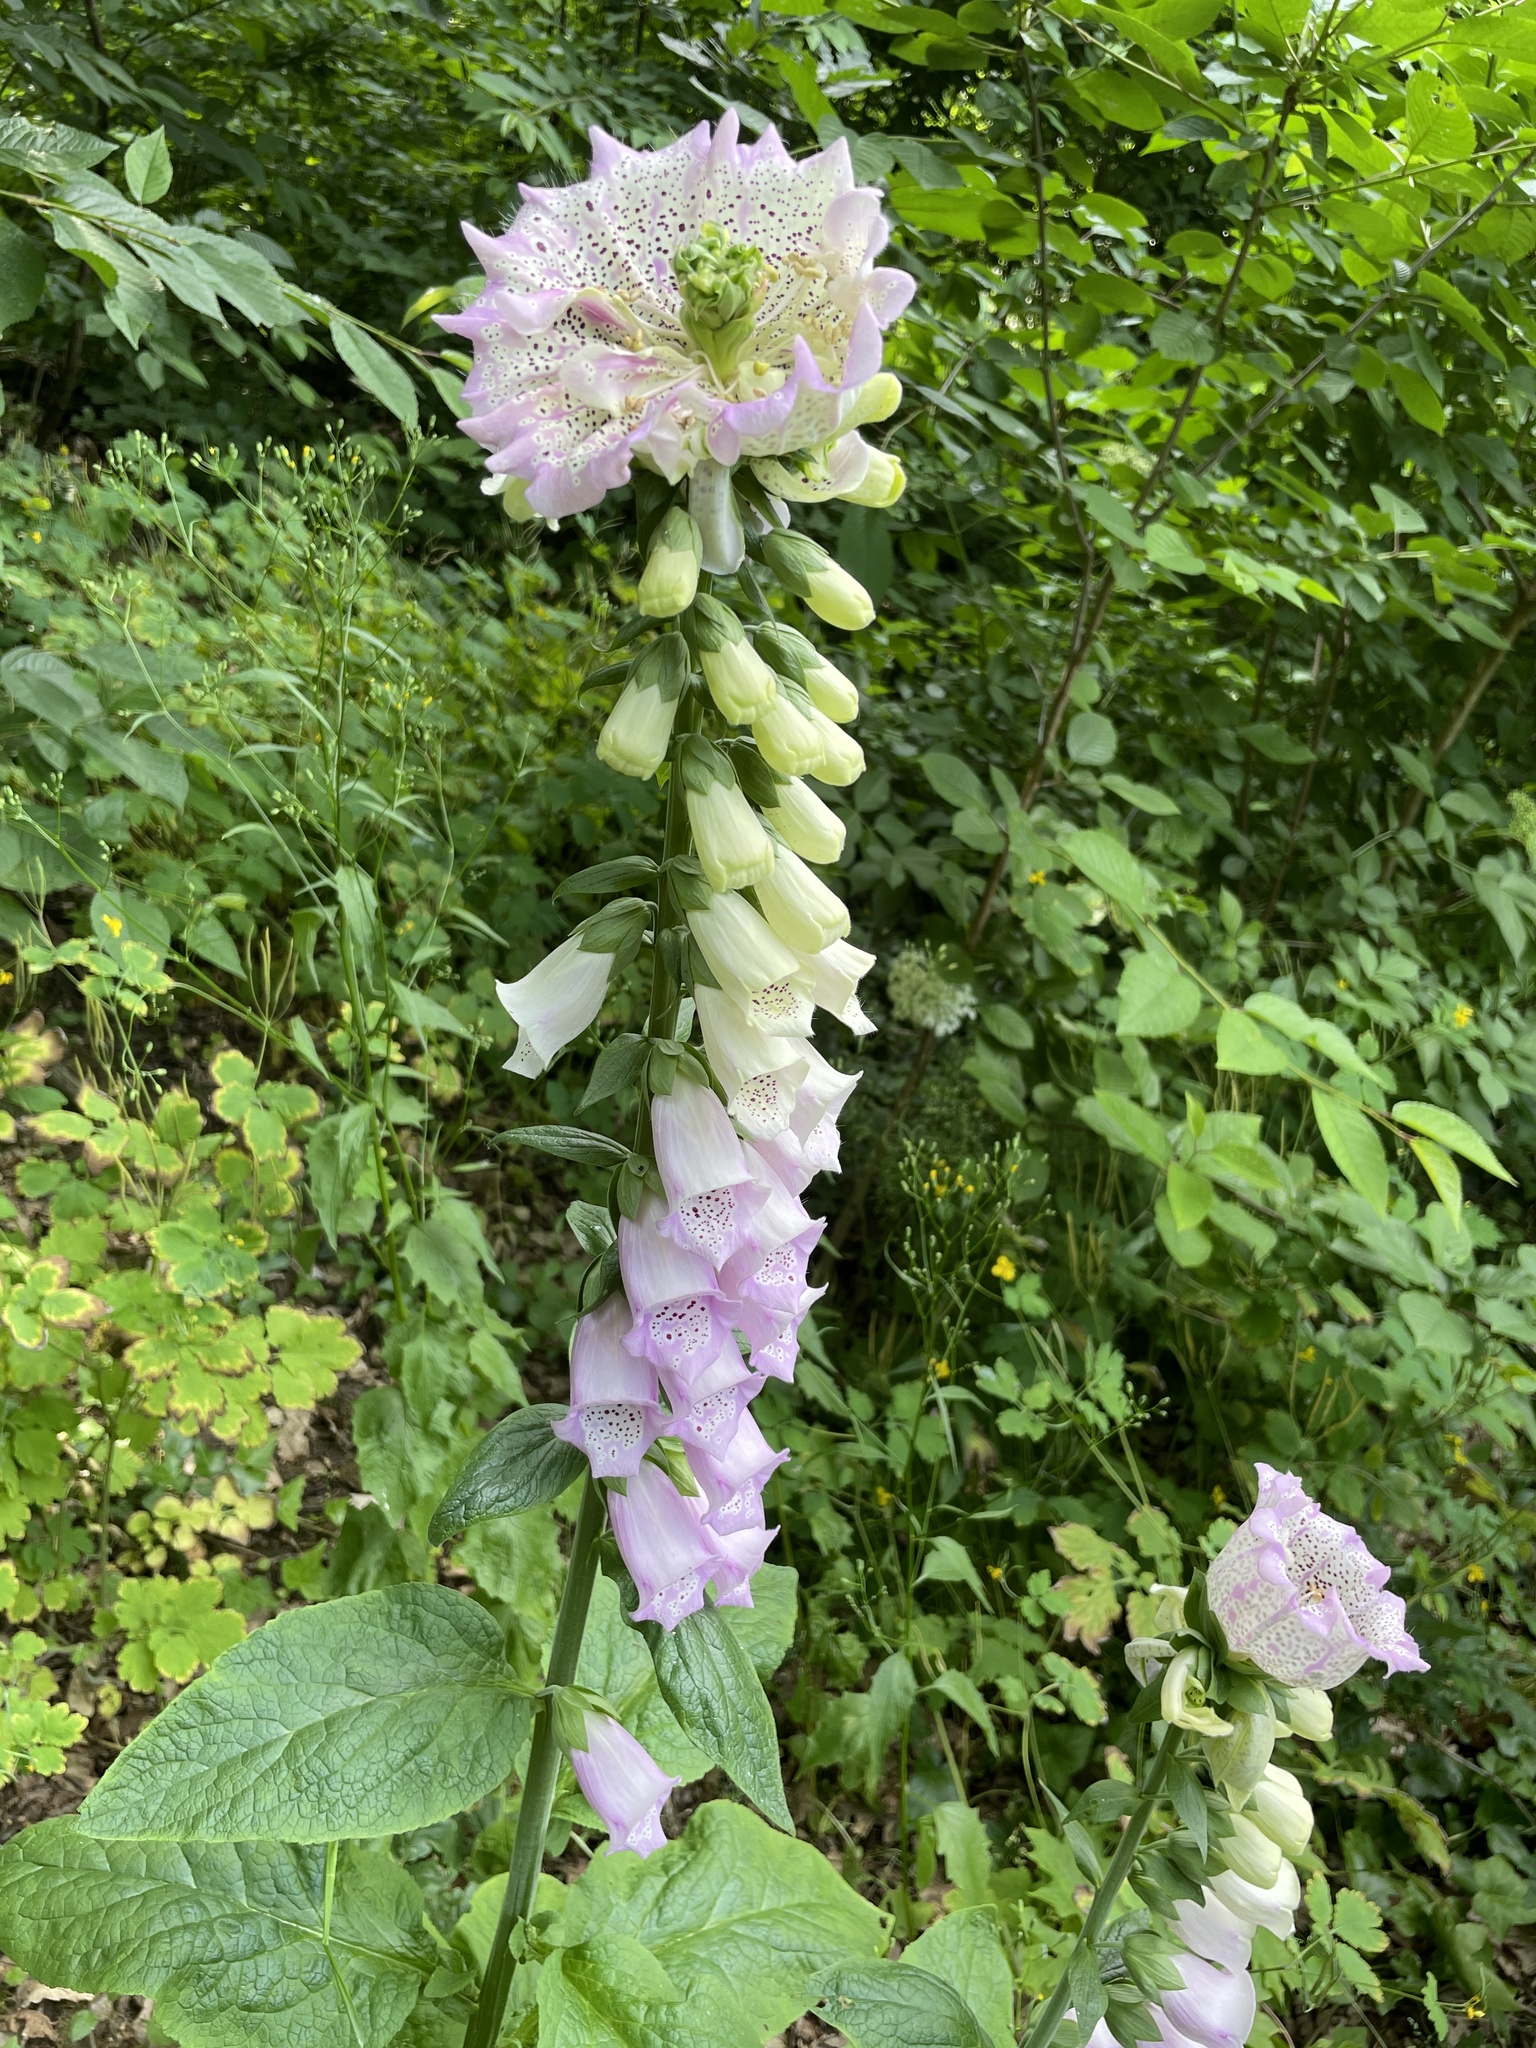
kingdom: Plantae
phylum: Tracheophyta
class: Magnoliopsida
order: Lamiales
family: Plantaginaceae
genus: Digitalis
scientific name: Digitalis purpurea
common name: Foxglove
